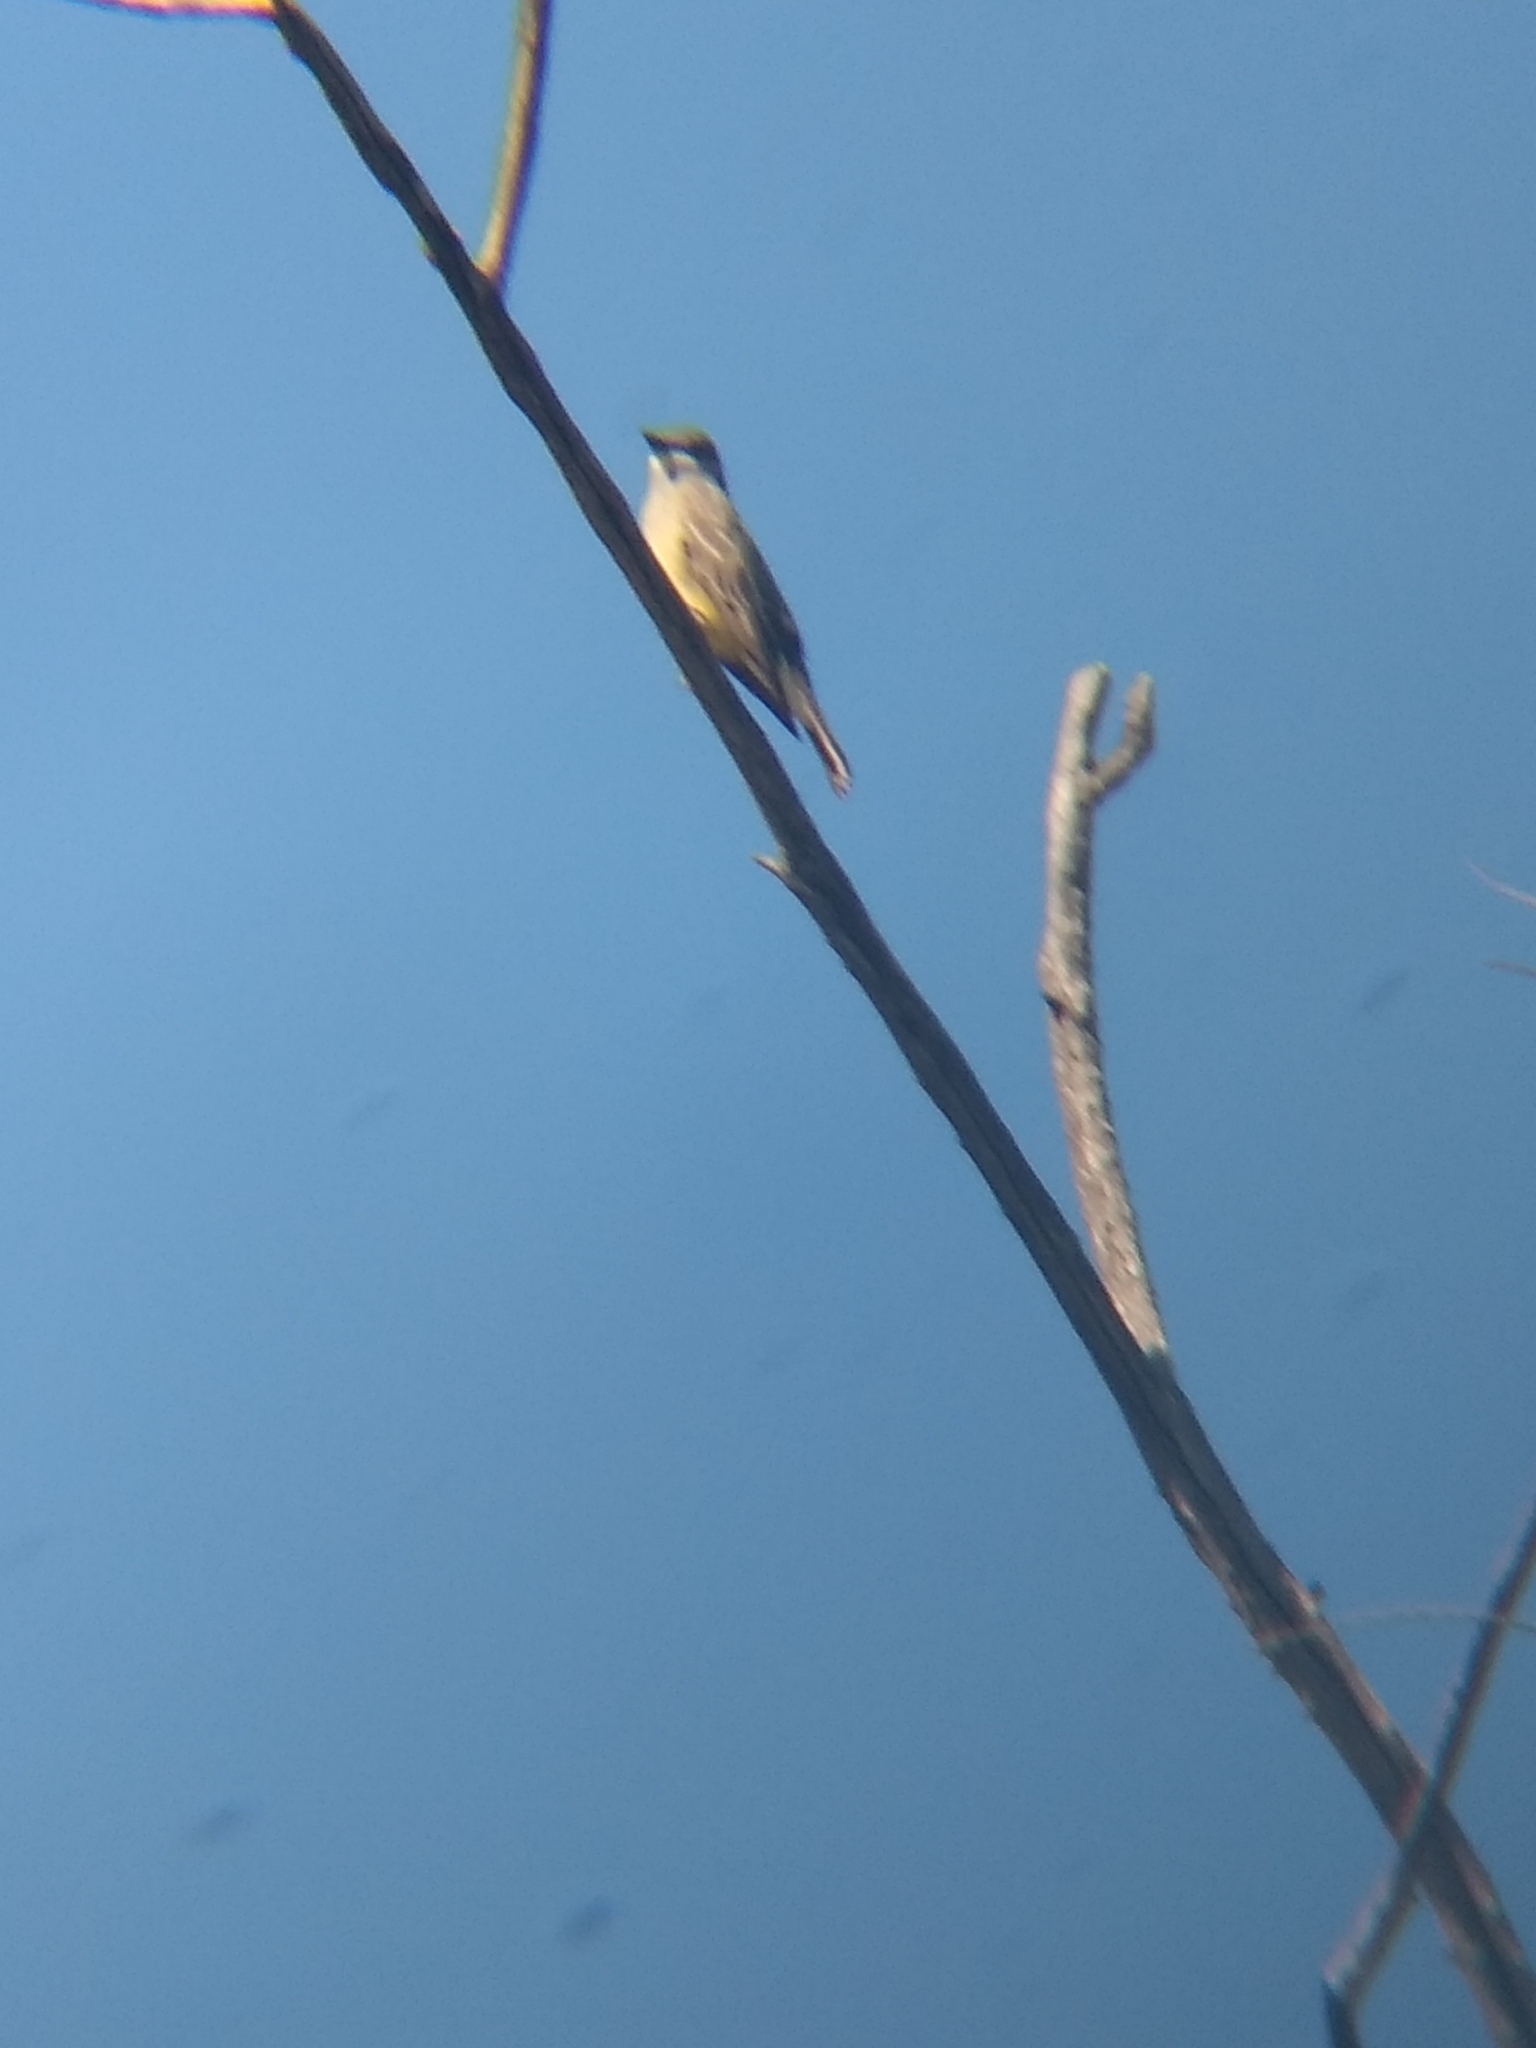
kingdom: Animalia
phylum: Chordata
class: Aves
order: Passeriformes
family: Tyrannidae
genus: Tyrannus
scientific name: Tyrannus vociferans
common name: Cassin's kingbird
